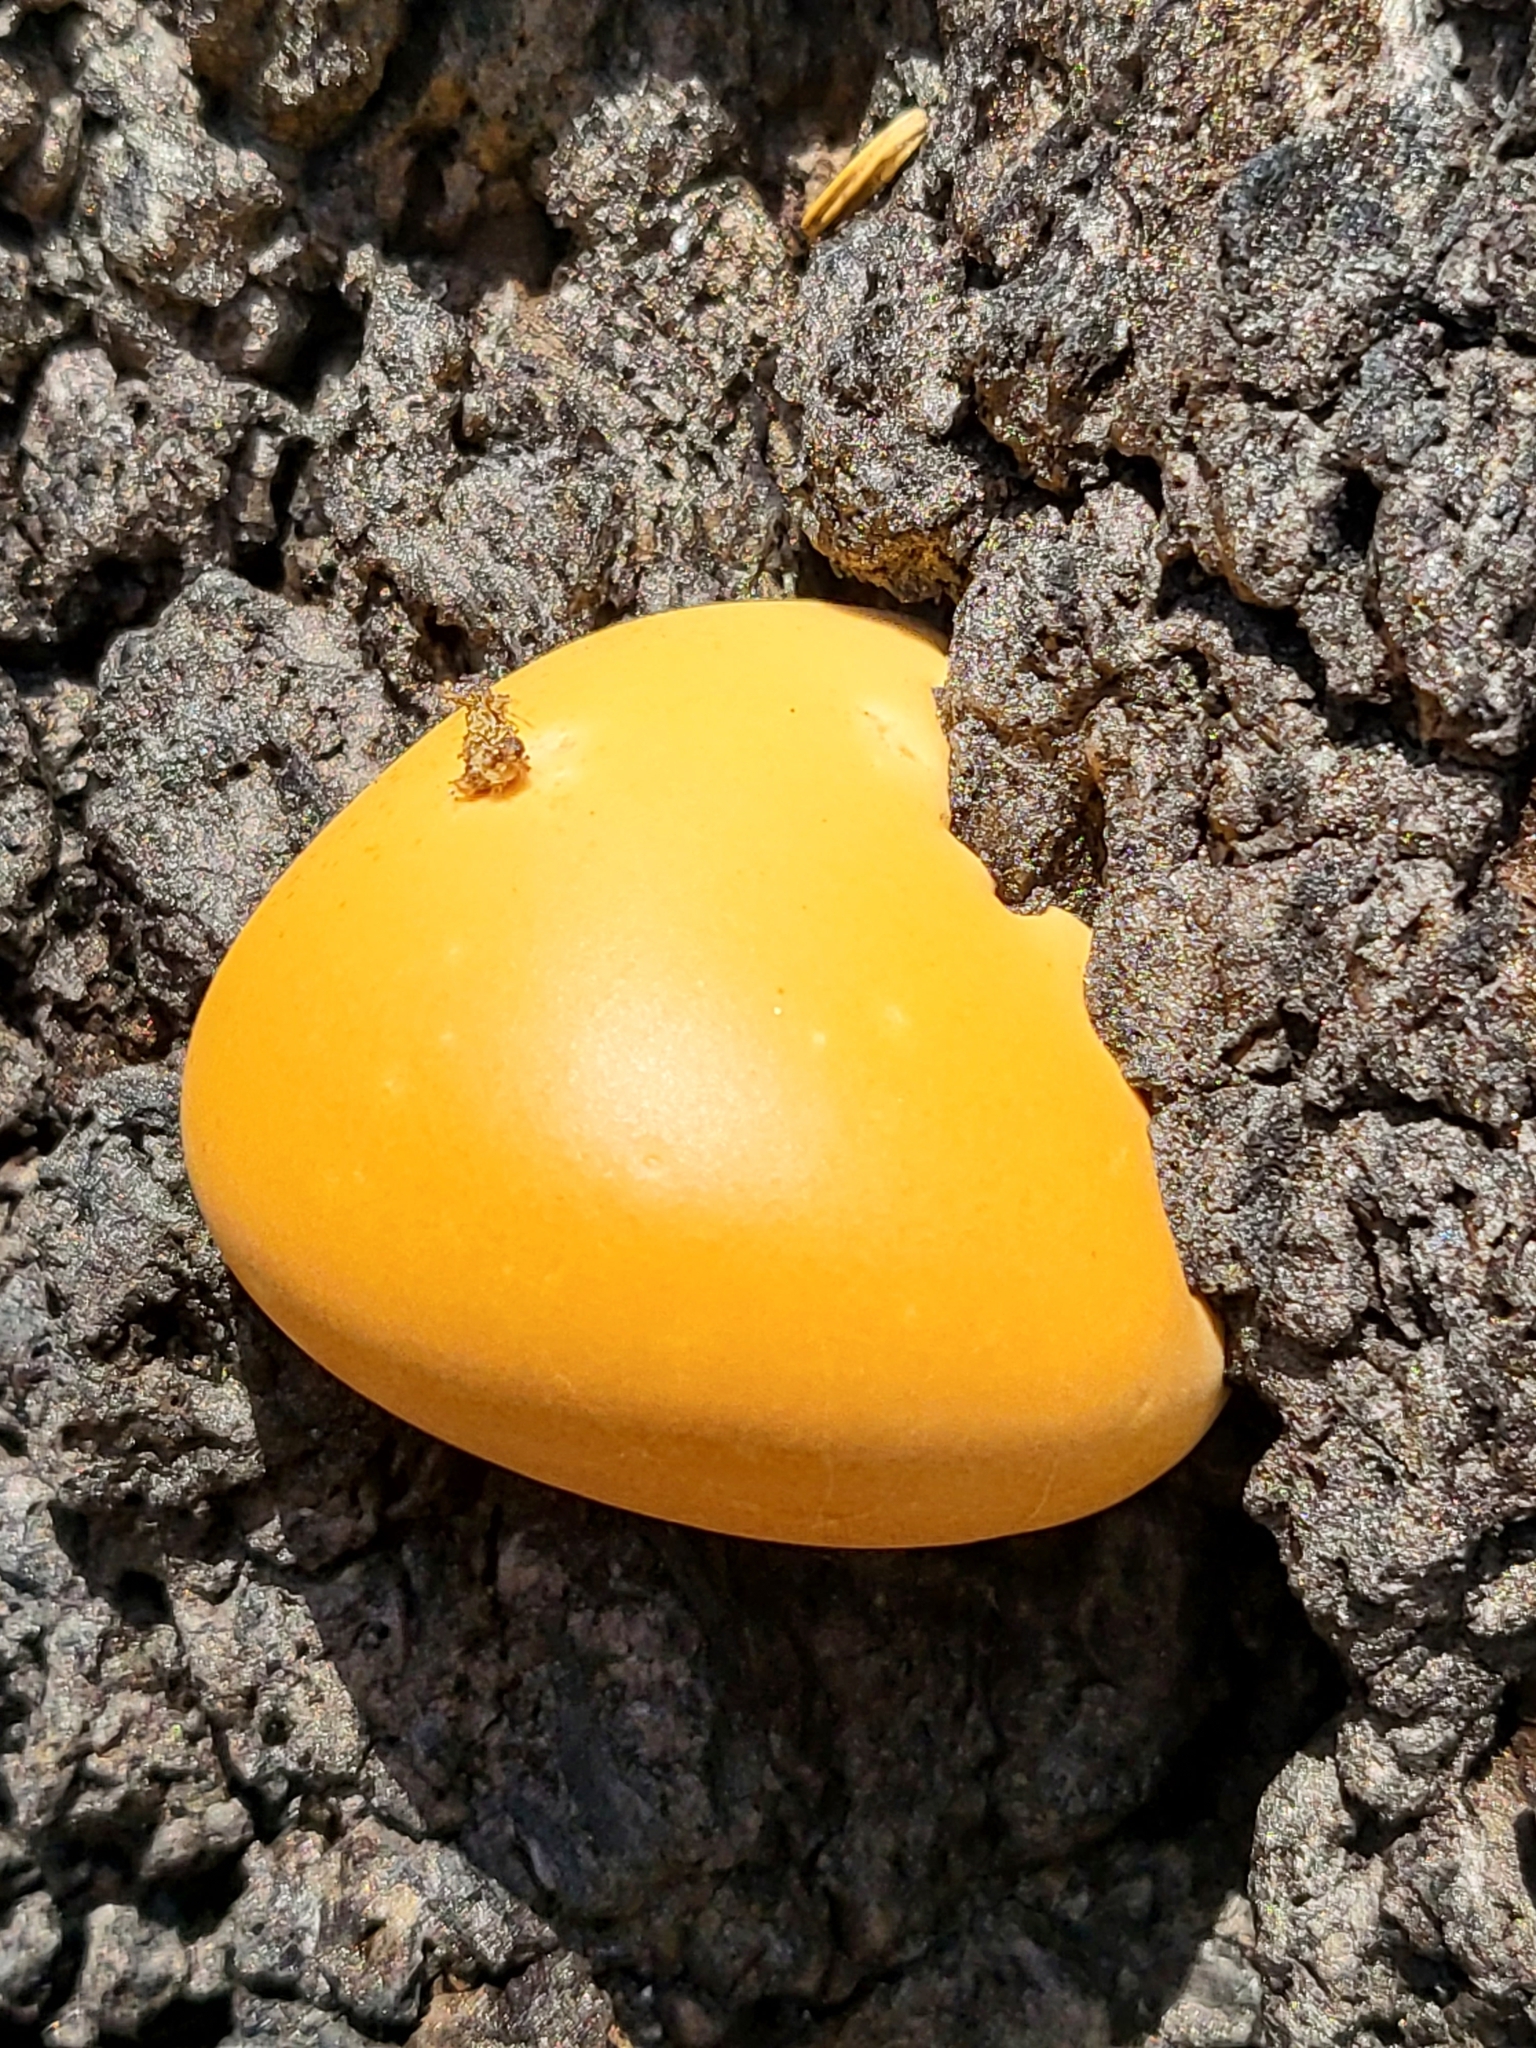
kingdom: Fungi
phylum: Basidiomycota
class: Agaricomycetes
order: Polyporales
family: Polyporaceae
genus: Cryptoporus
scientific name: Cryptoporus volvatus
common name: Veiled polypore
